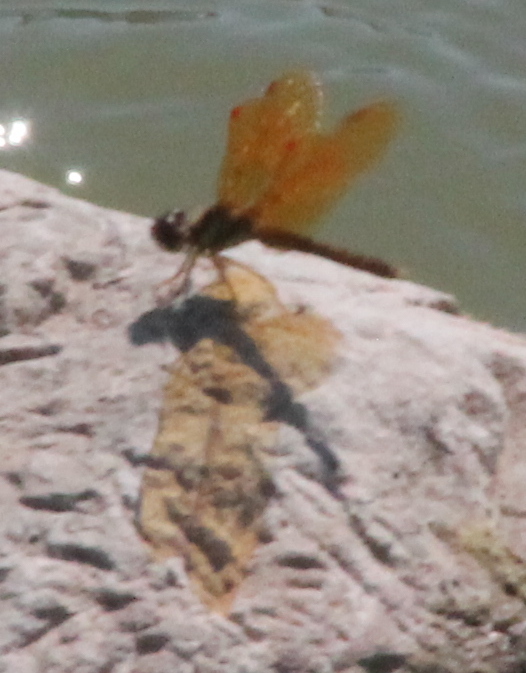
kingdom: Animalia
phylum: Arthropoda
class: Insecta
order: Odonata
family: Libellulidae
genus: Perithemis
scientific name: Perithemis tenera
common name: Eastern amberwing
